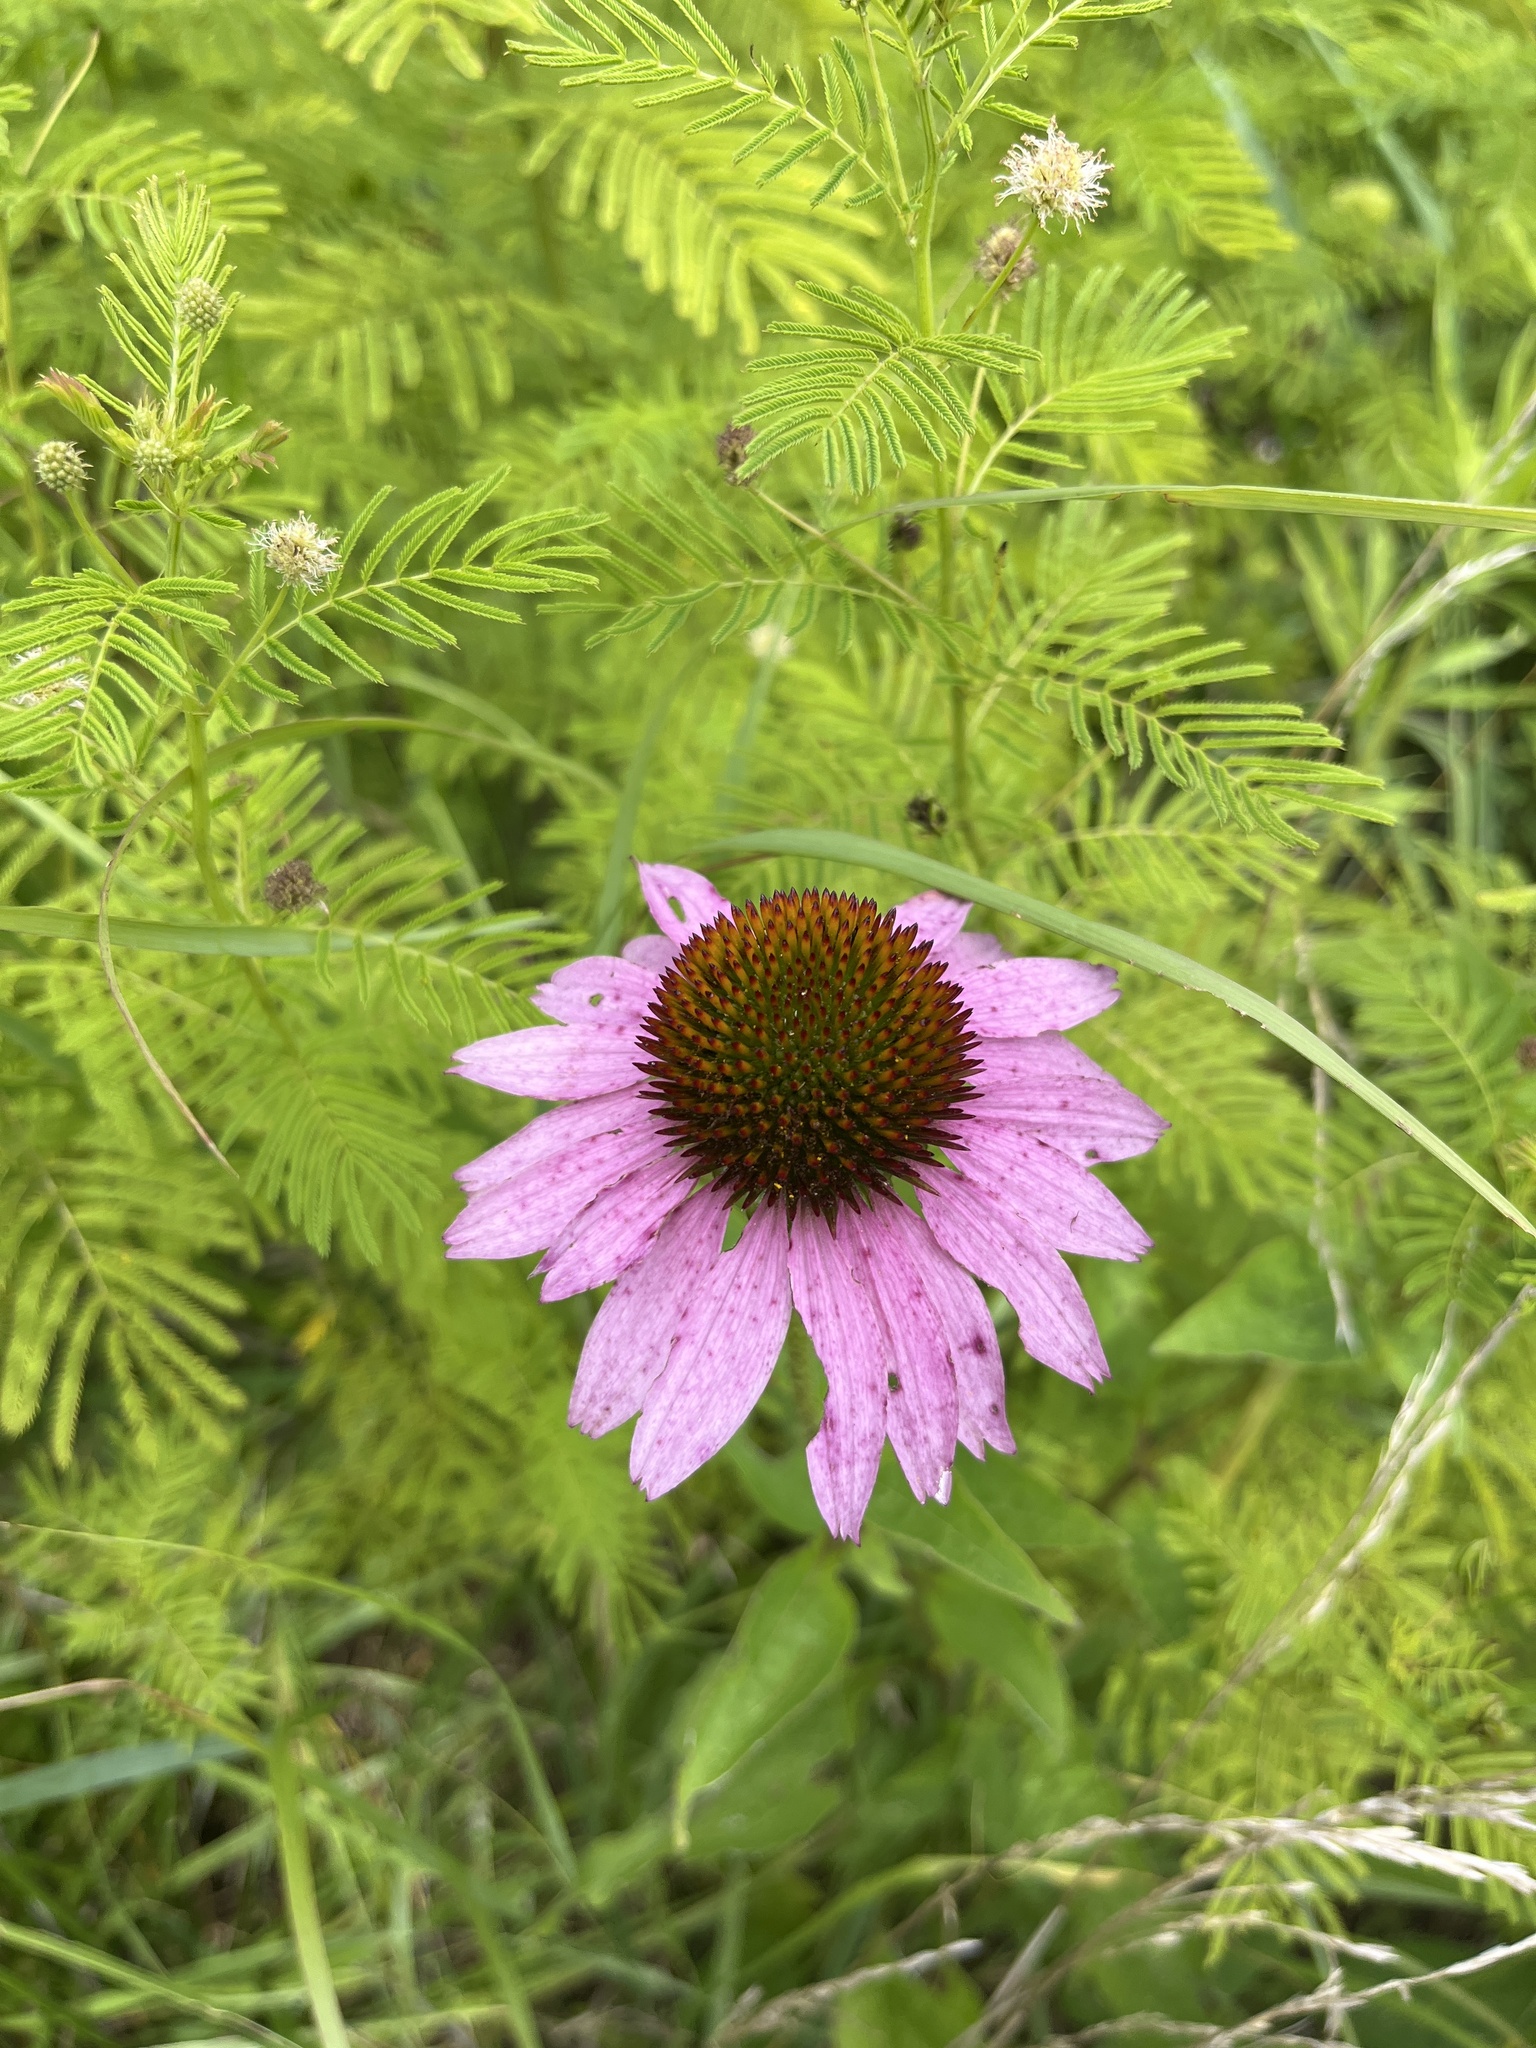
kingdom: Plantae
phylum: Tracheophyta
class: Magnoliopsida
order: Asterales
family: Asteraceae
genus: Echinacea
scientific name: Echinacea purpurea
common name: Broad-leaved purple coneflower
